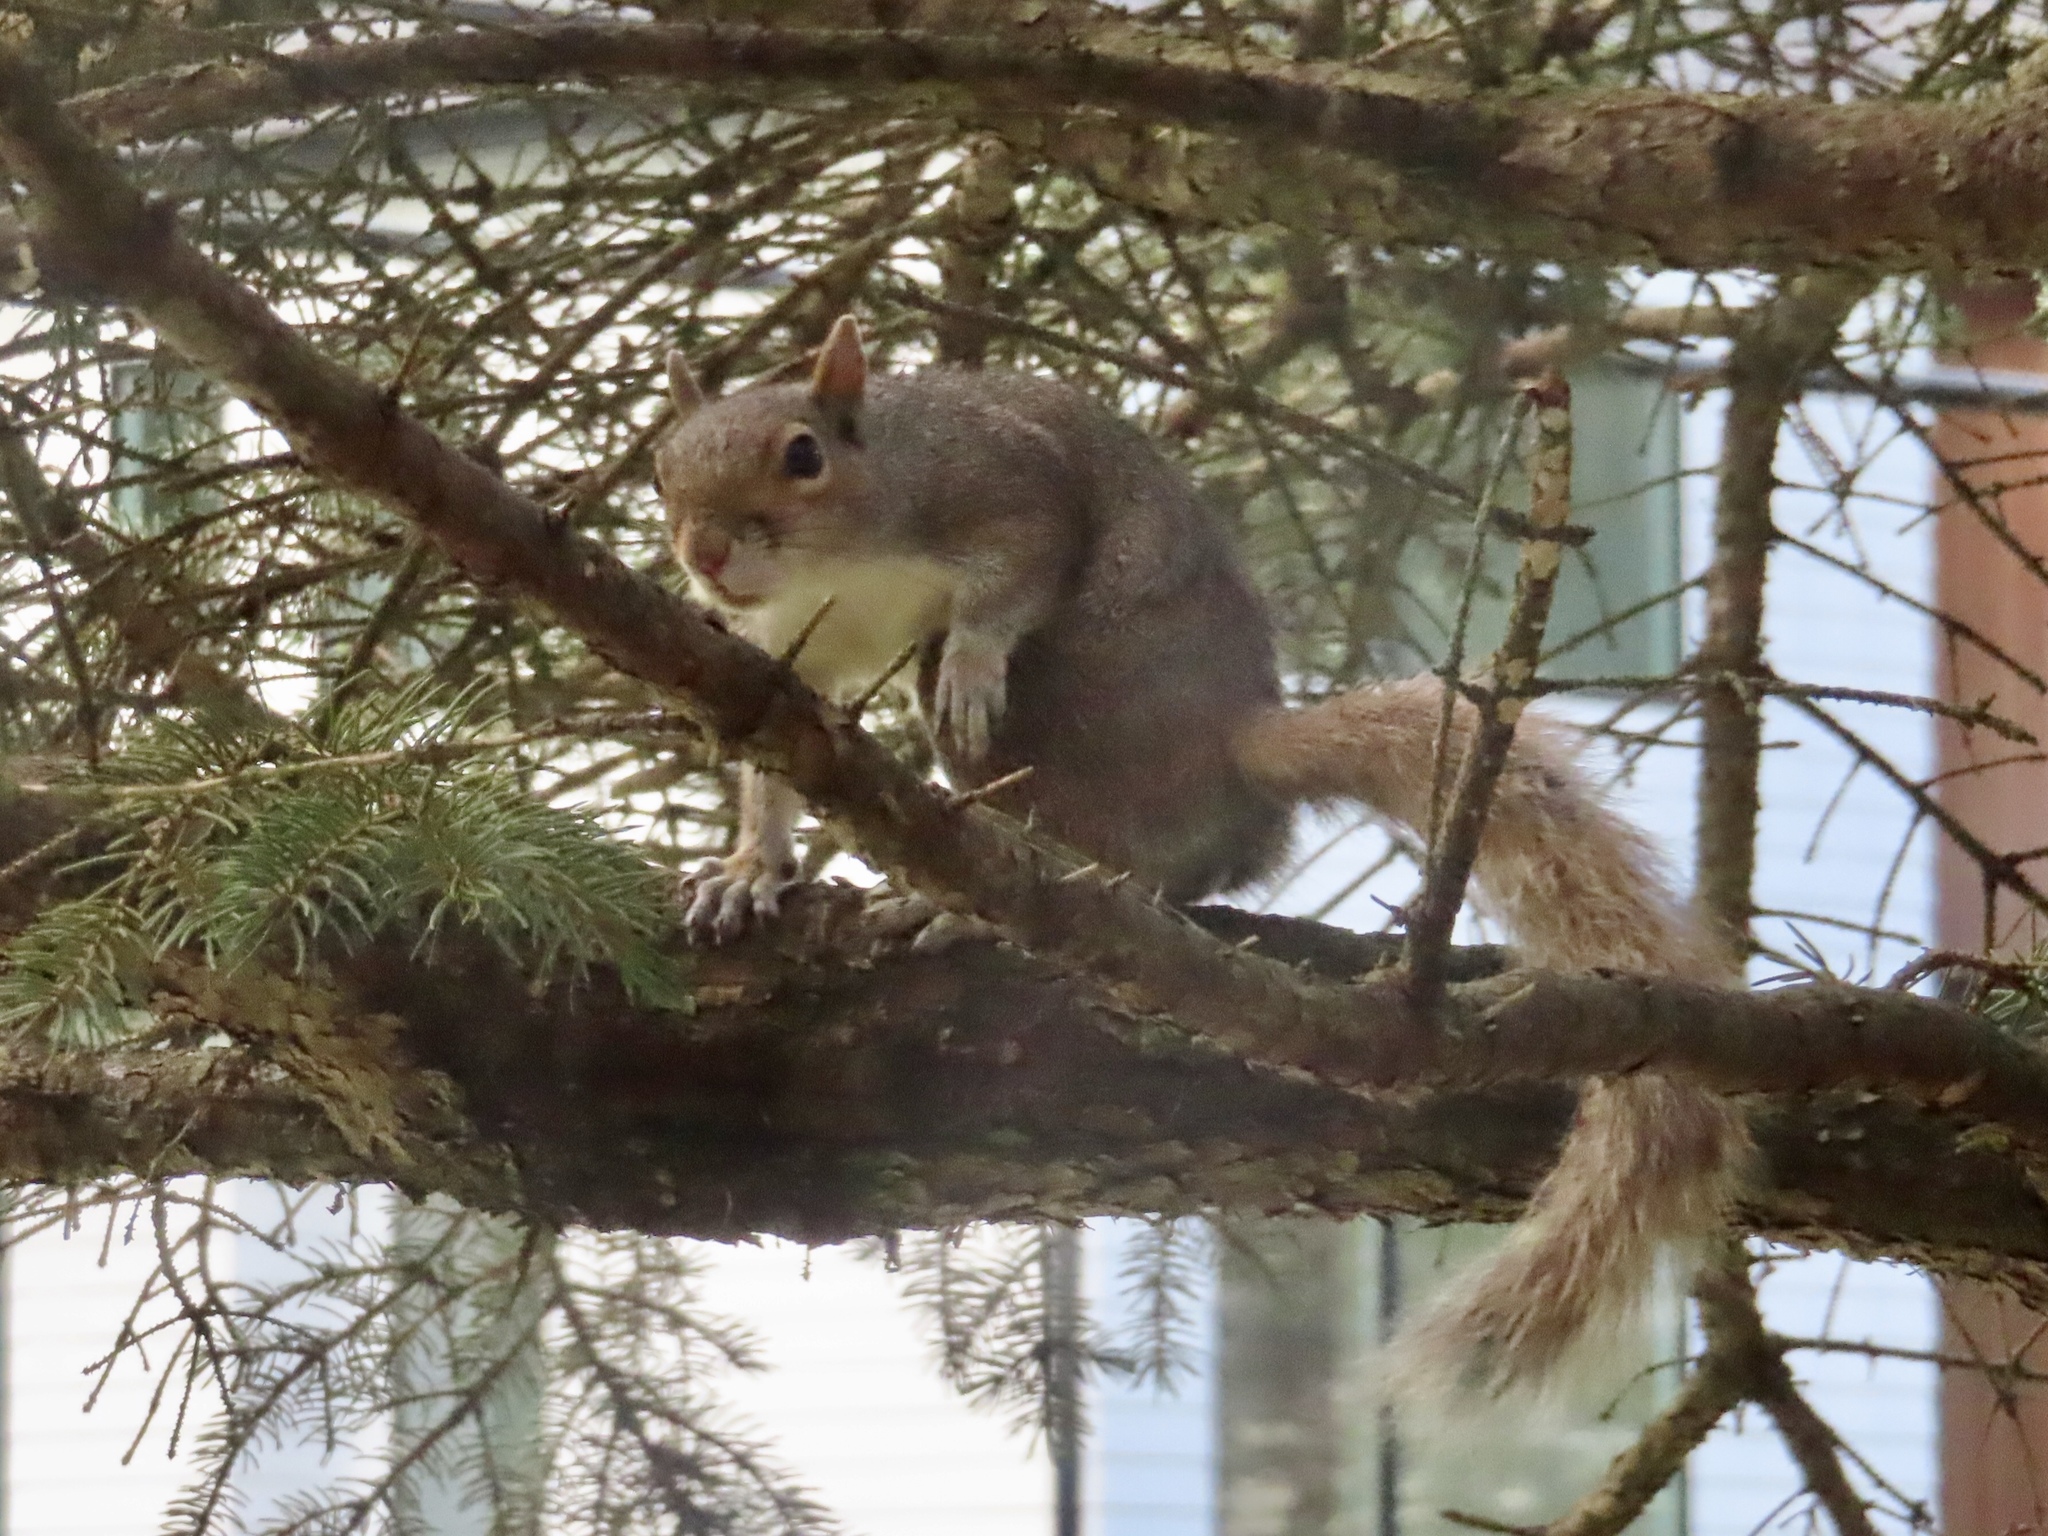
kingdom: Animalia
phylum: Chordata
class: Mammalia
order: Rodentia
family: Sciuridae
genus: Sciurus
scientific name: Sciurus carolinensis
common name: Eastern gray squirrel
